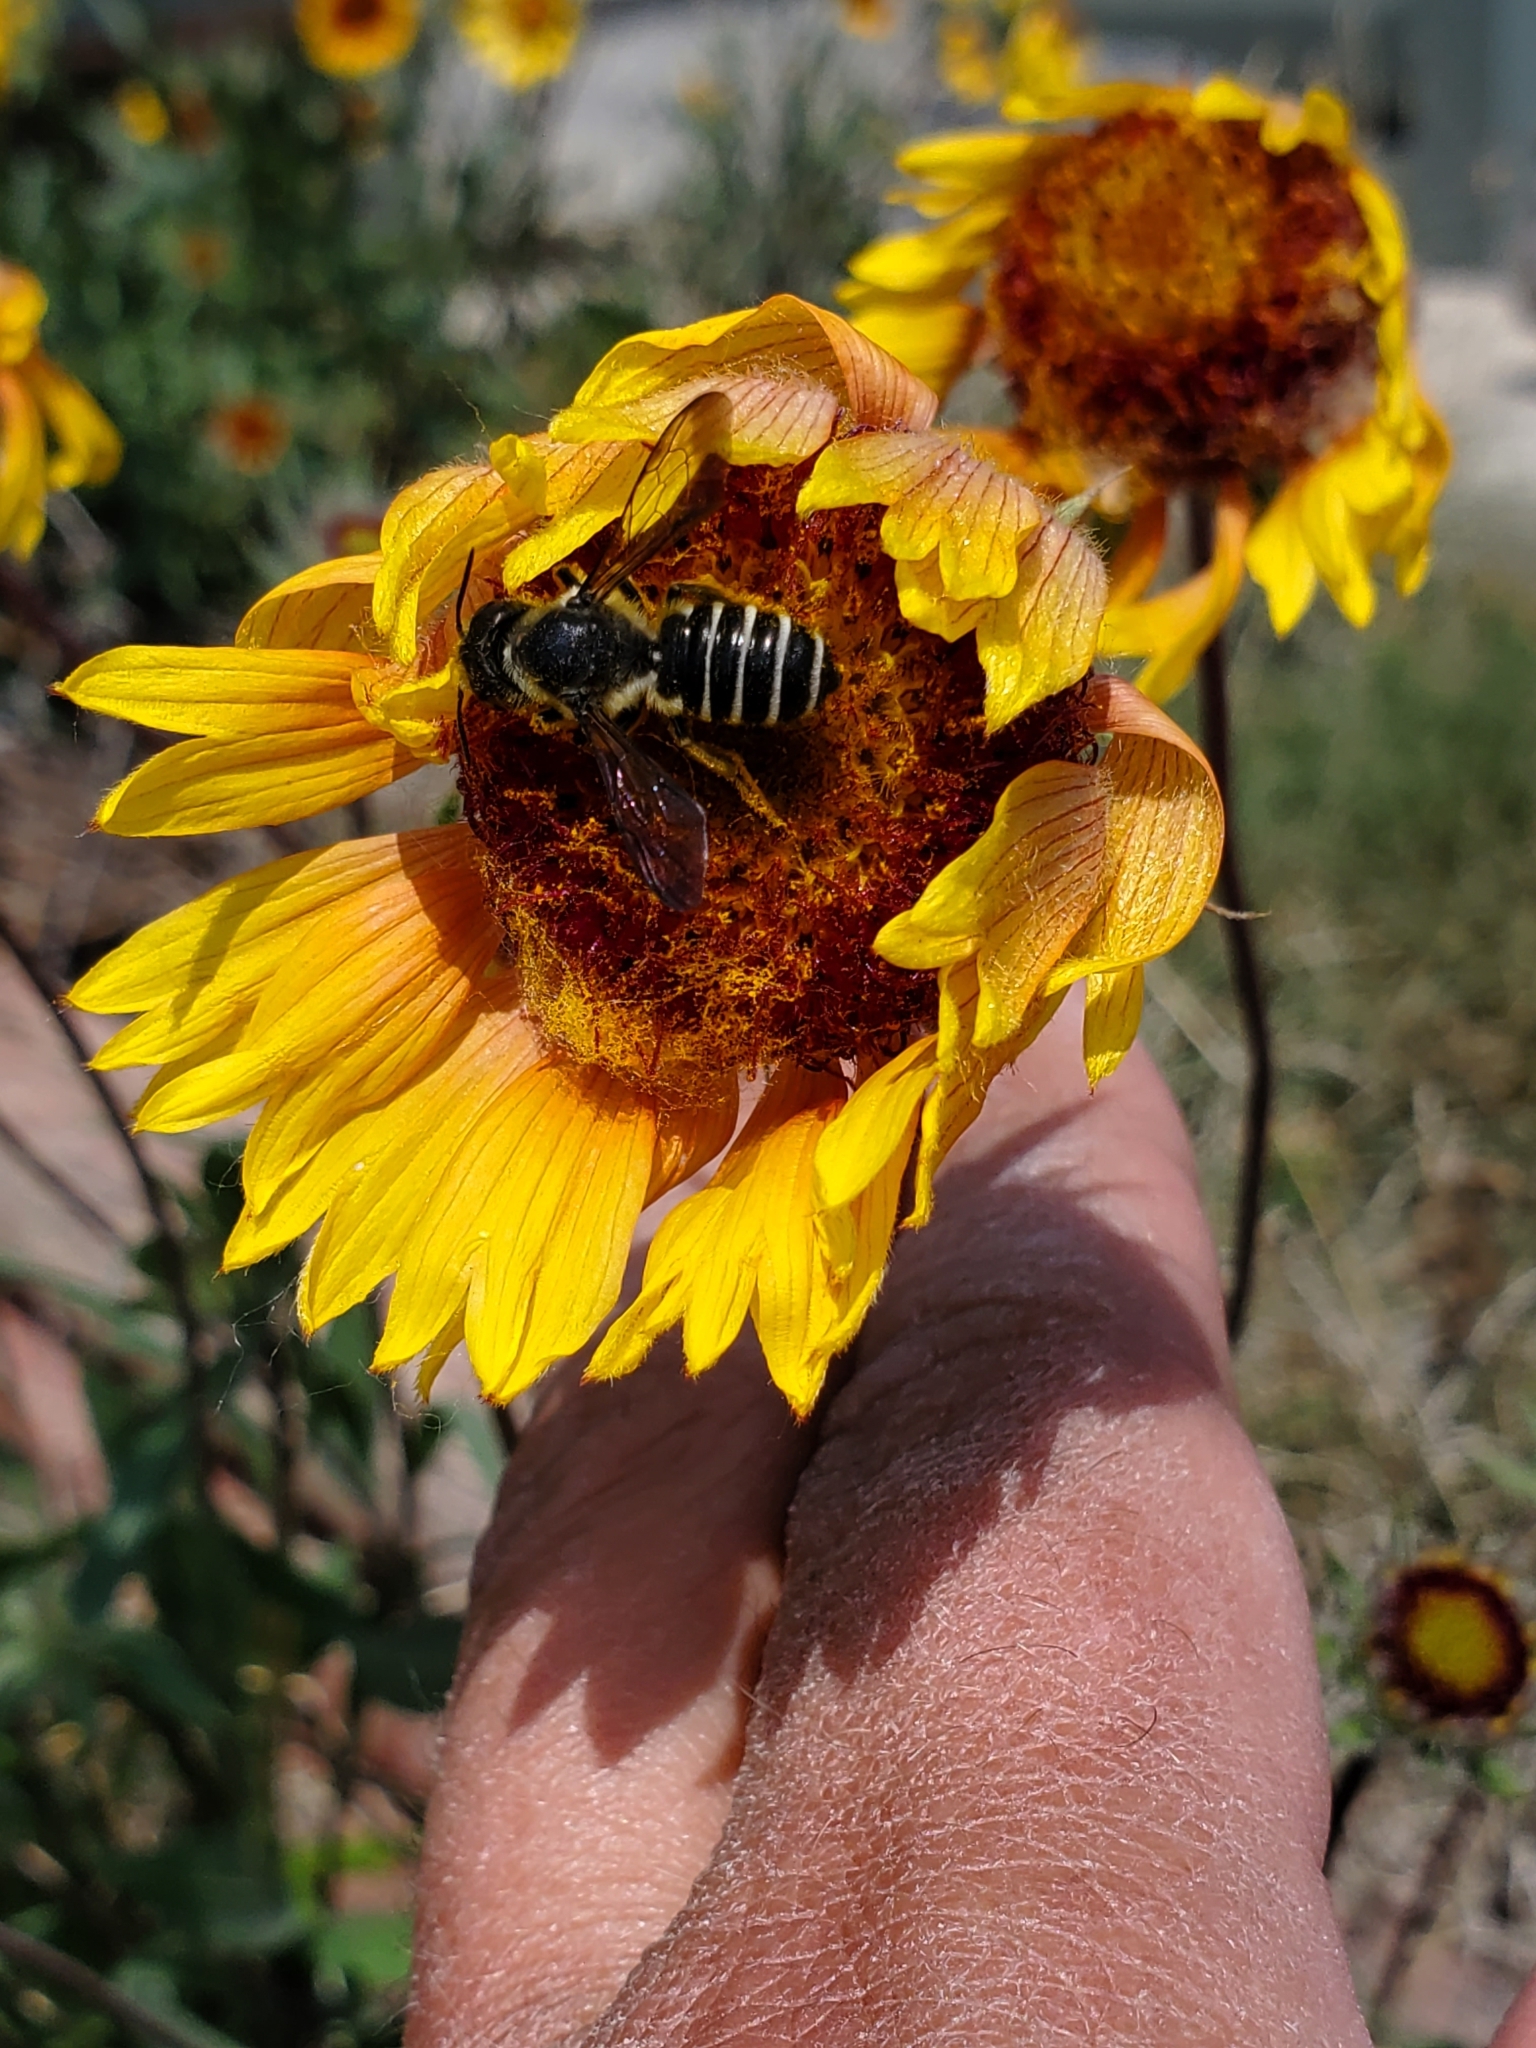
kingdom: Animalia
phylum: Arthropoda
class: Insecta
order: Hymenoptera
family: Megachilidae
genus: Megachile
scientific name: Megachile pugnata
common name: Pugnacious leafcutter bee
